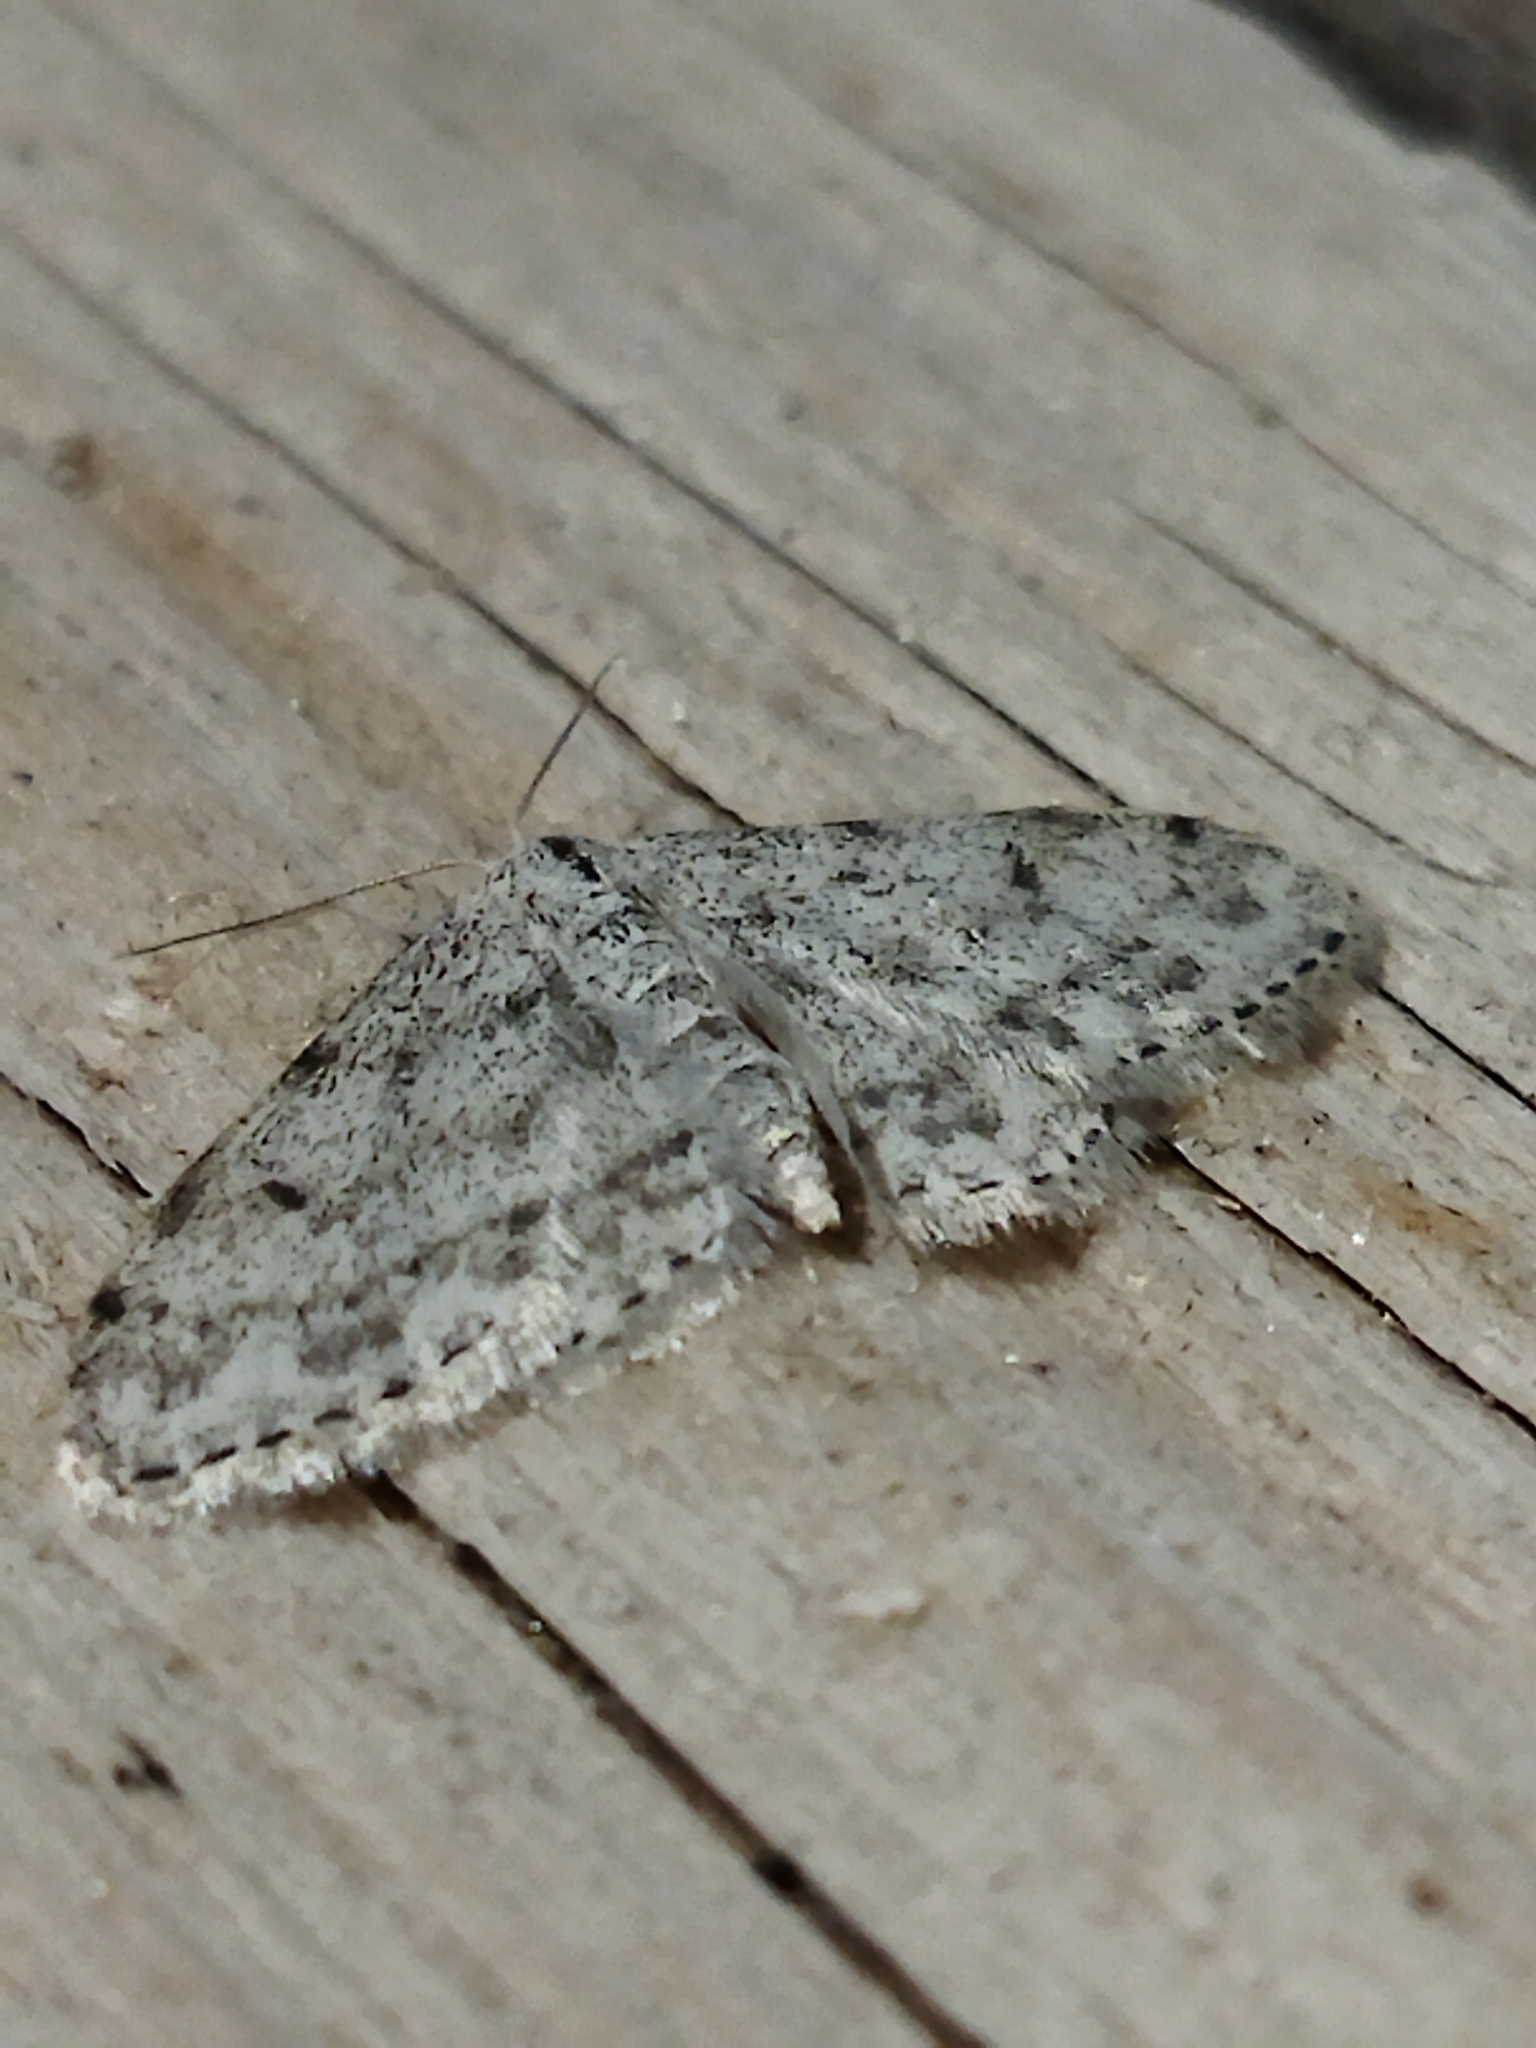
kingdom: Animalia
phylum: Arthropoda
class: Insecta
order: Lepidoptera
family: Geometridae
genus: Idaea
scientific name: Idaea camparia
